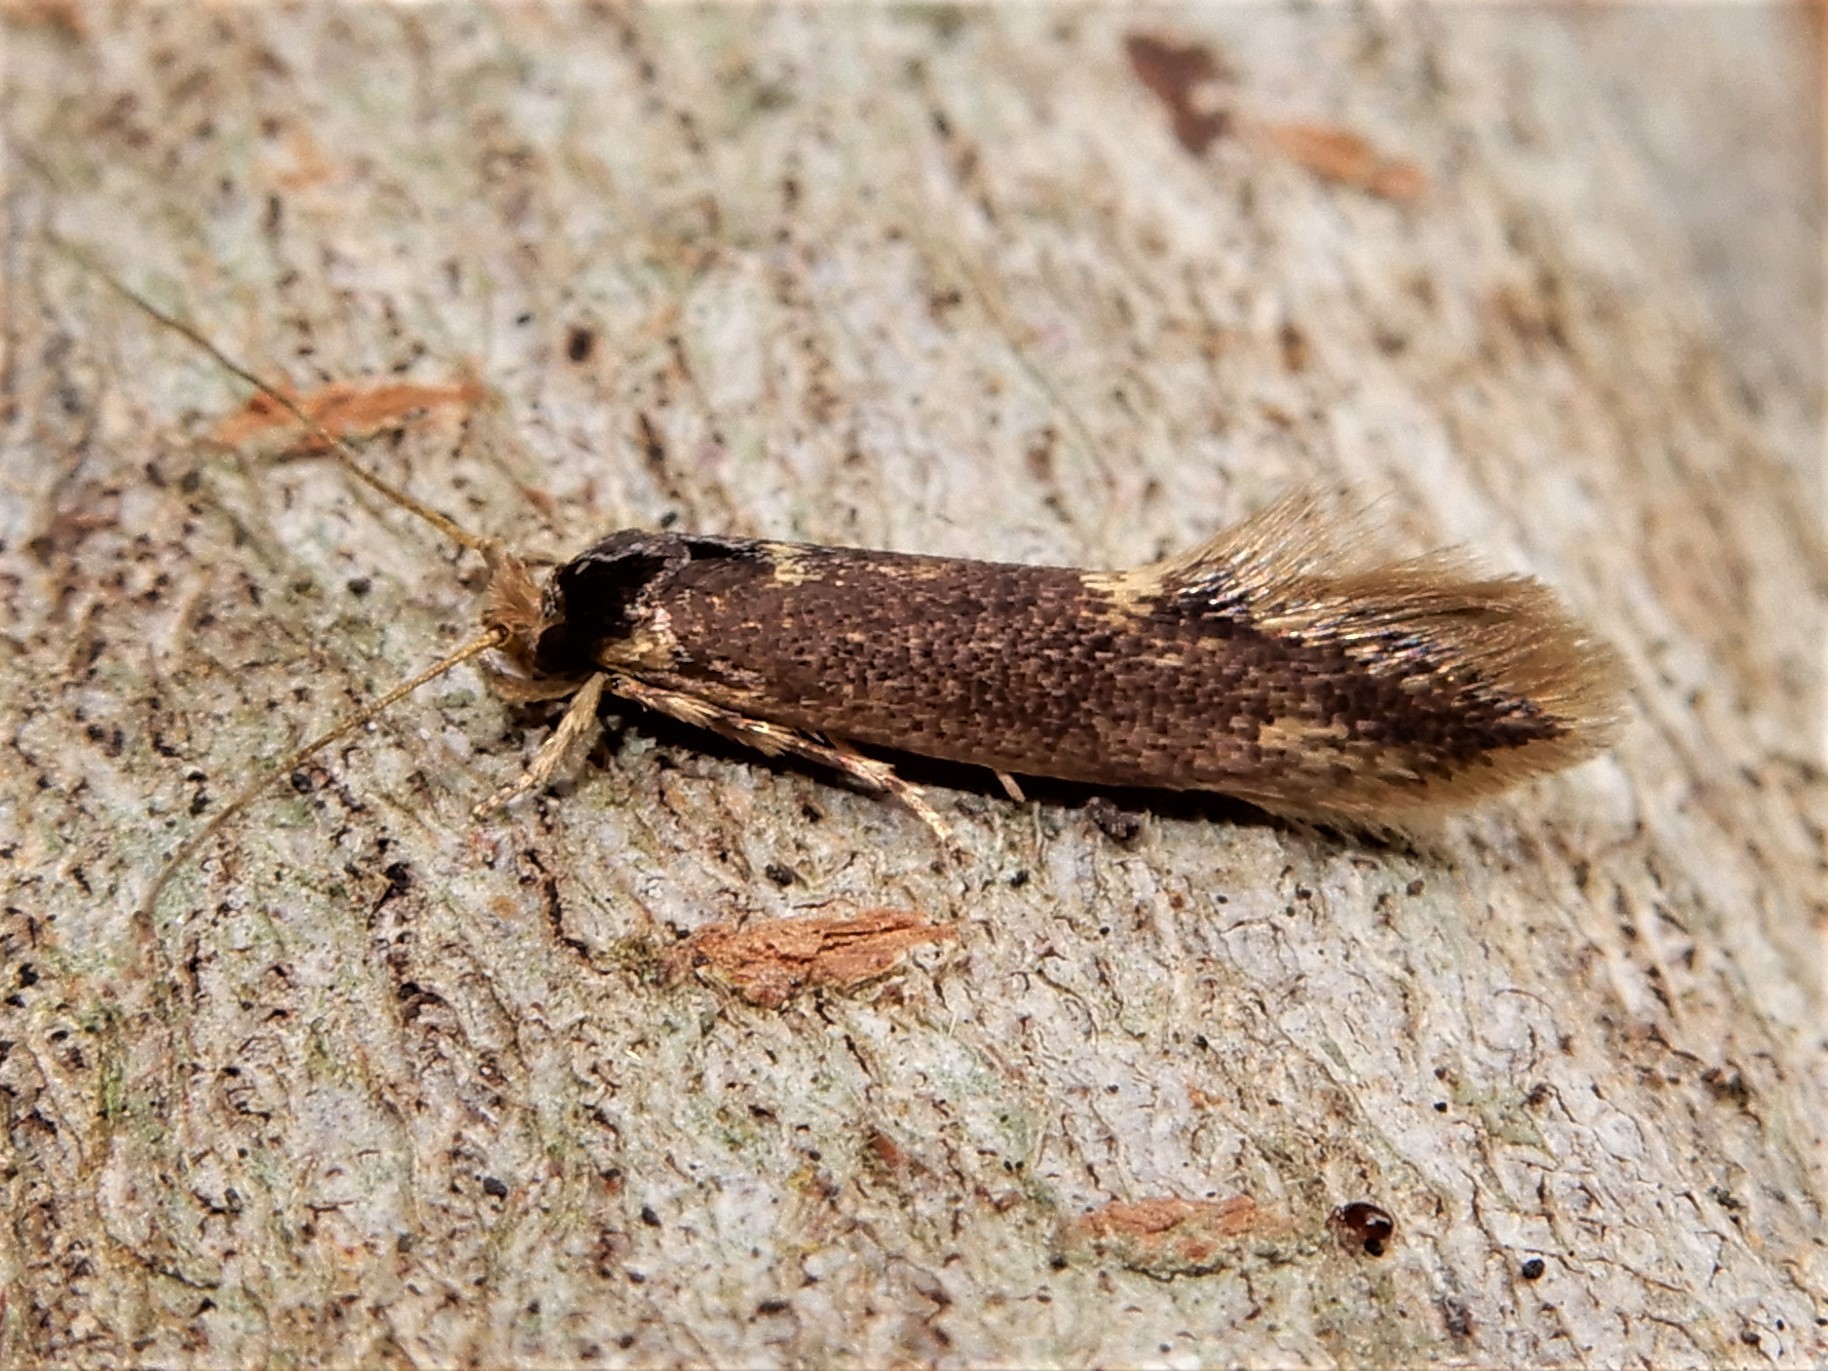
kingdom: Animalia
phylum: Arthropoda
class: Insecta
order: Lepidoptera
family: Tineidae
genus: Opogona
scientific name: Opogona omoscopa
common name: Moth
